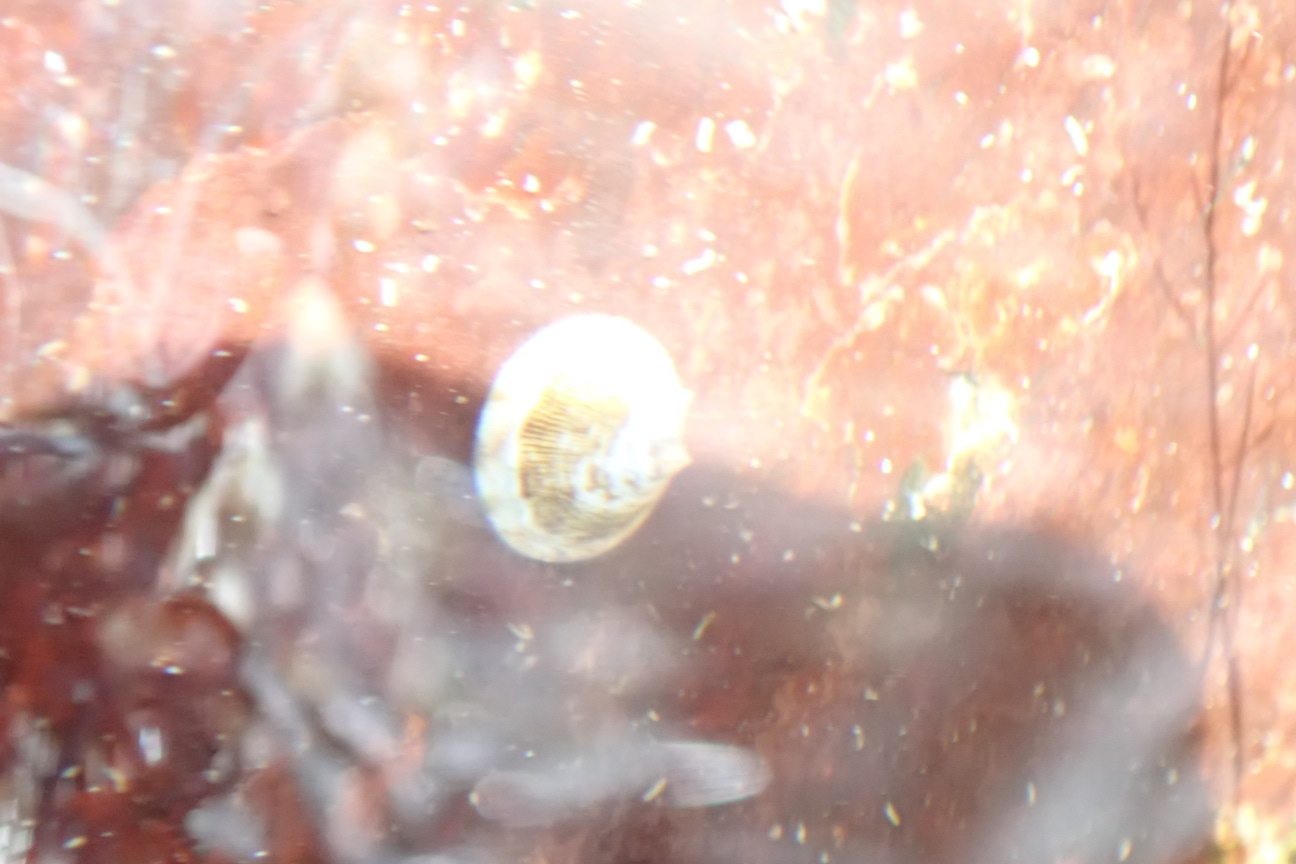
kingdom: Animalia
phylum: Mollusca
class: Gastropoda
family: Lottiidae
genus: Testudinalia
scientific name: Testudinalia testudinalis
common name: Common tortoiseshell limpet
